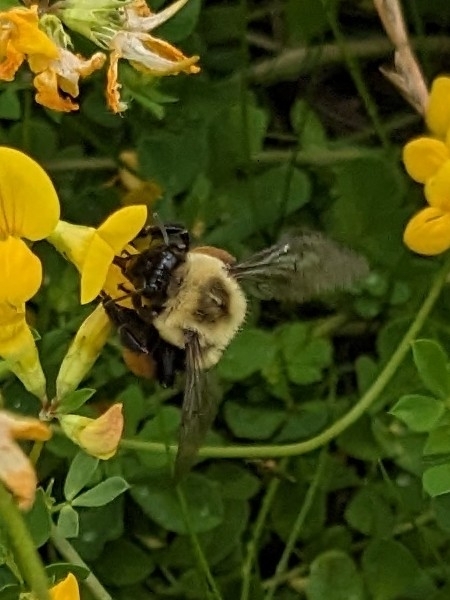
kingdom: Animalia
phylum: Arthropoda
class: Insecta
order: Hymenoptera
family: Apidae
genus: Bombus
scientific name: Bombus impatiens
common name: Common eastern bumble bee
